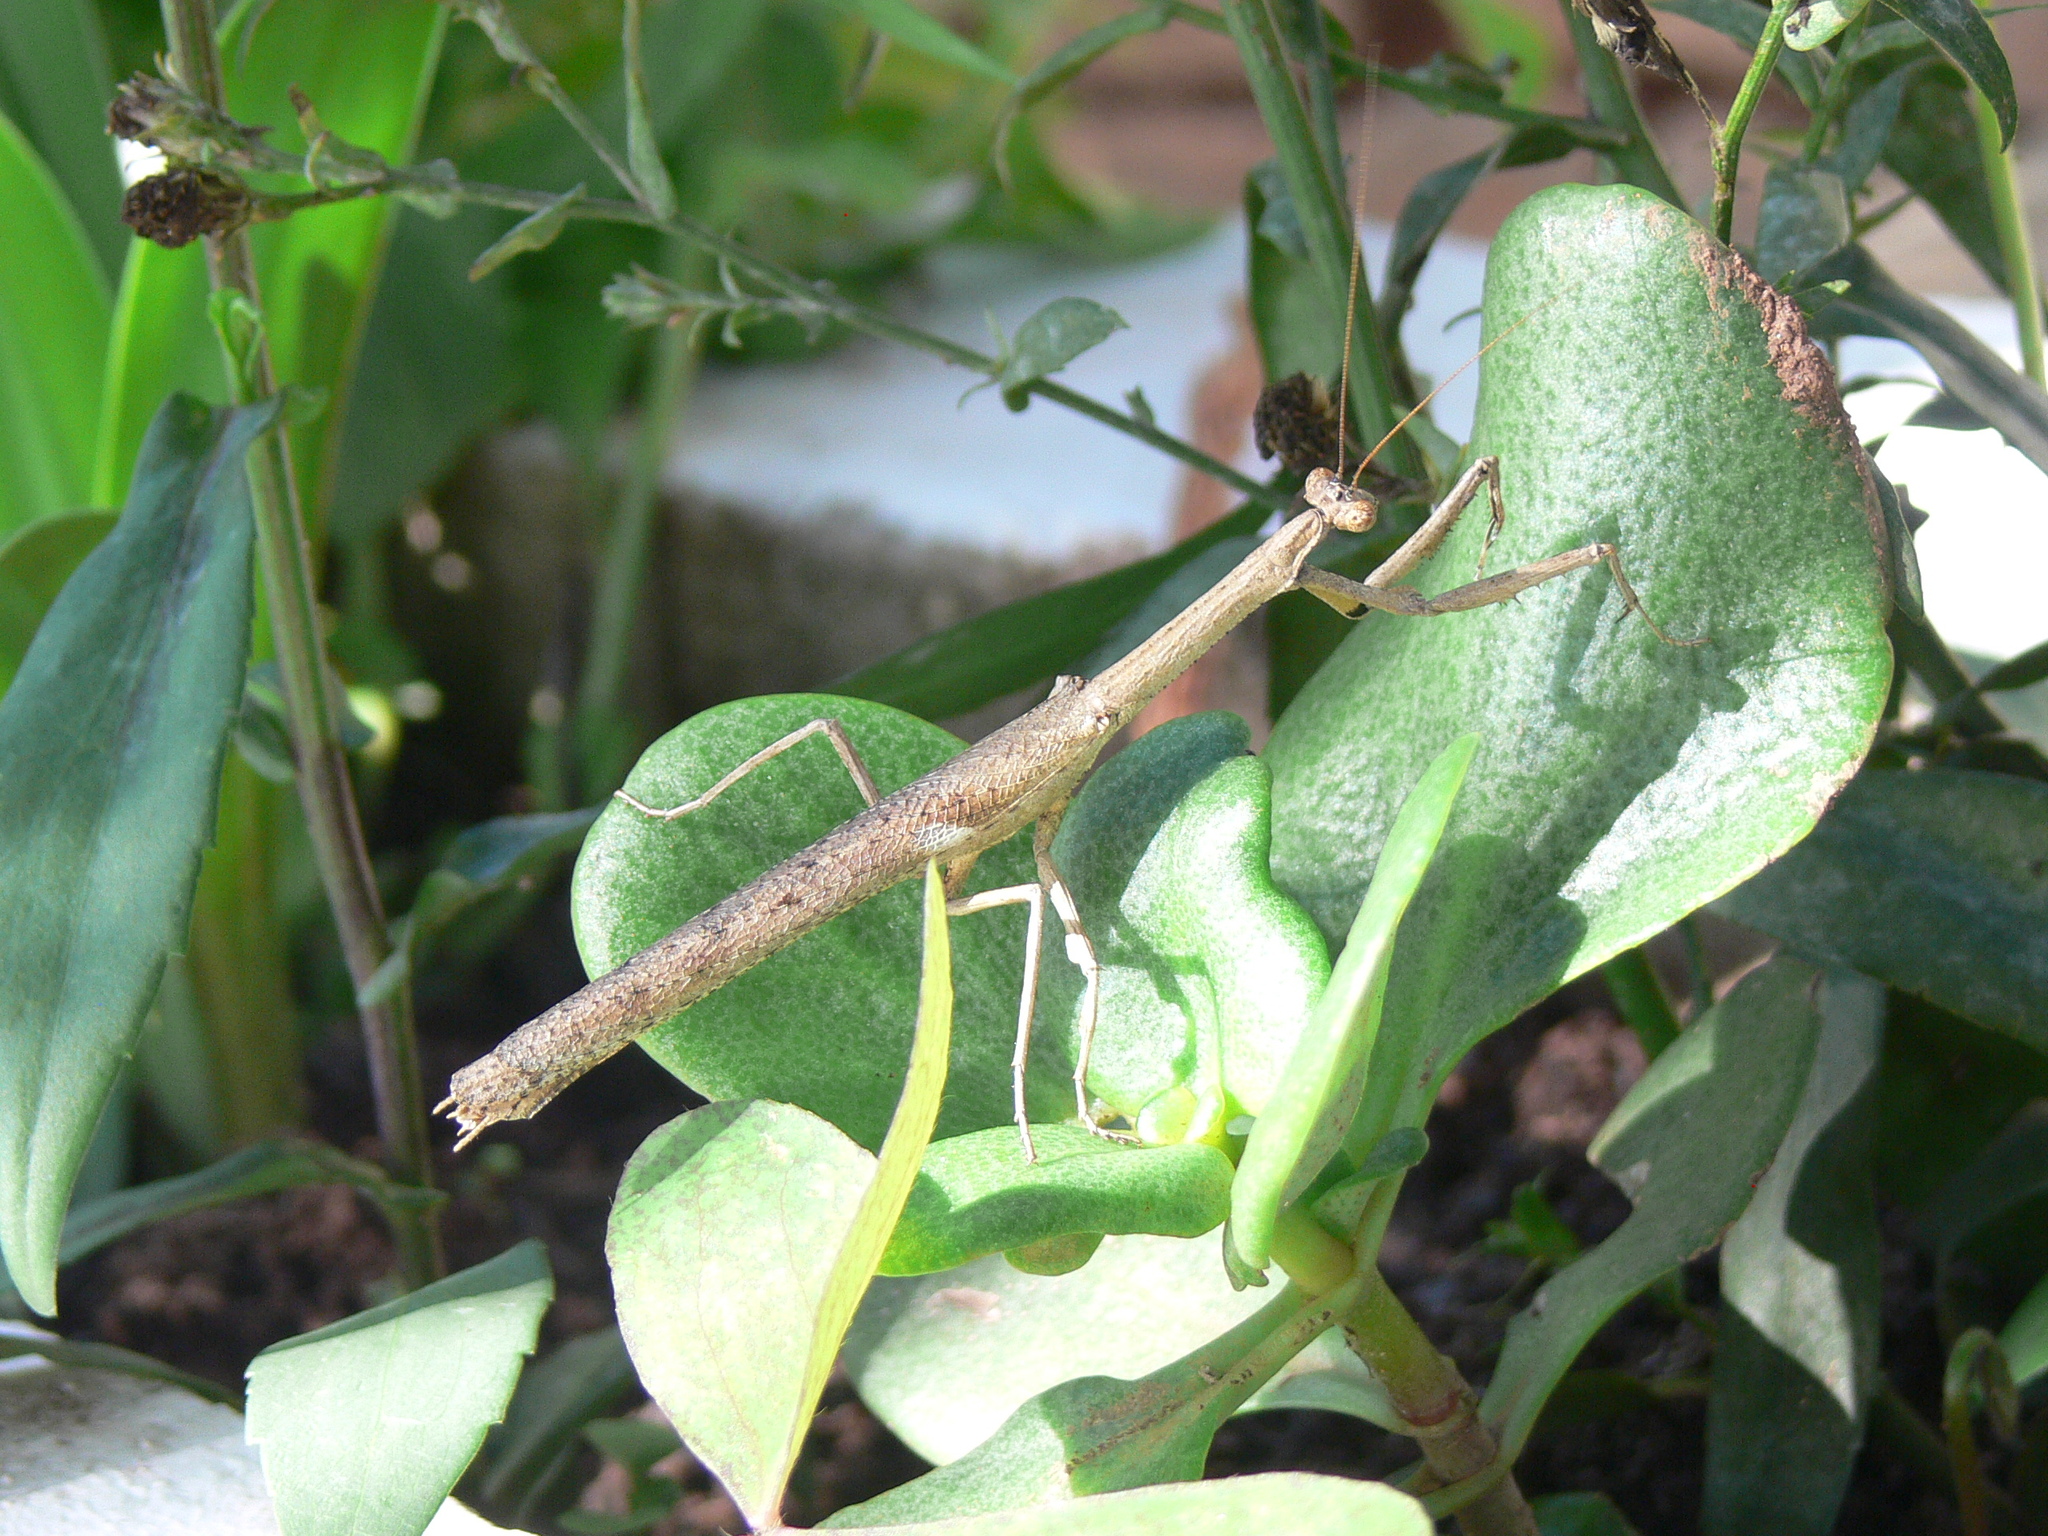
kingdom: Animalia
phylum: Arthropoda
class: Insecta
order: Mantodea
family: Deroplatyidae
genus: Popa
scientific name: Popa spurca
